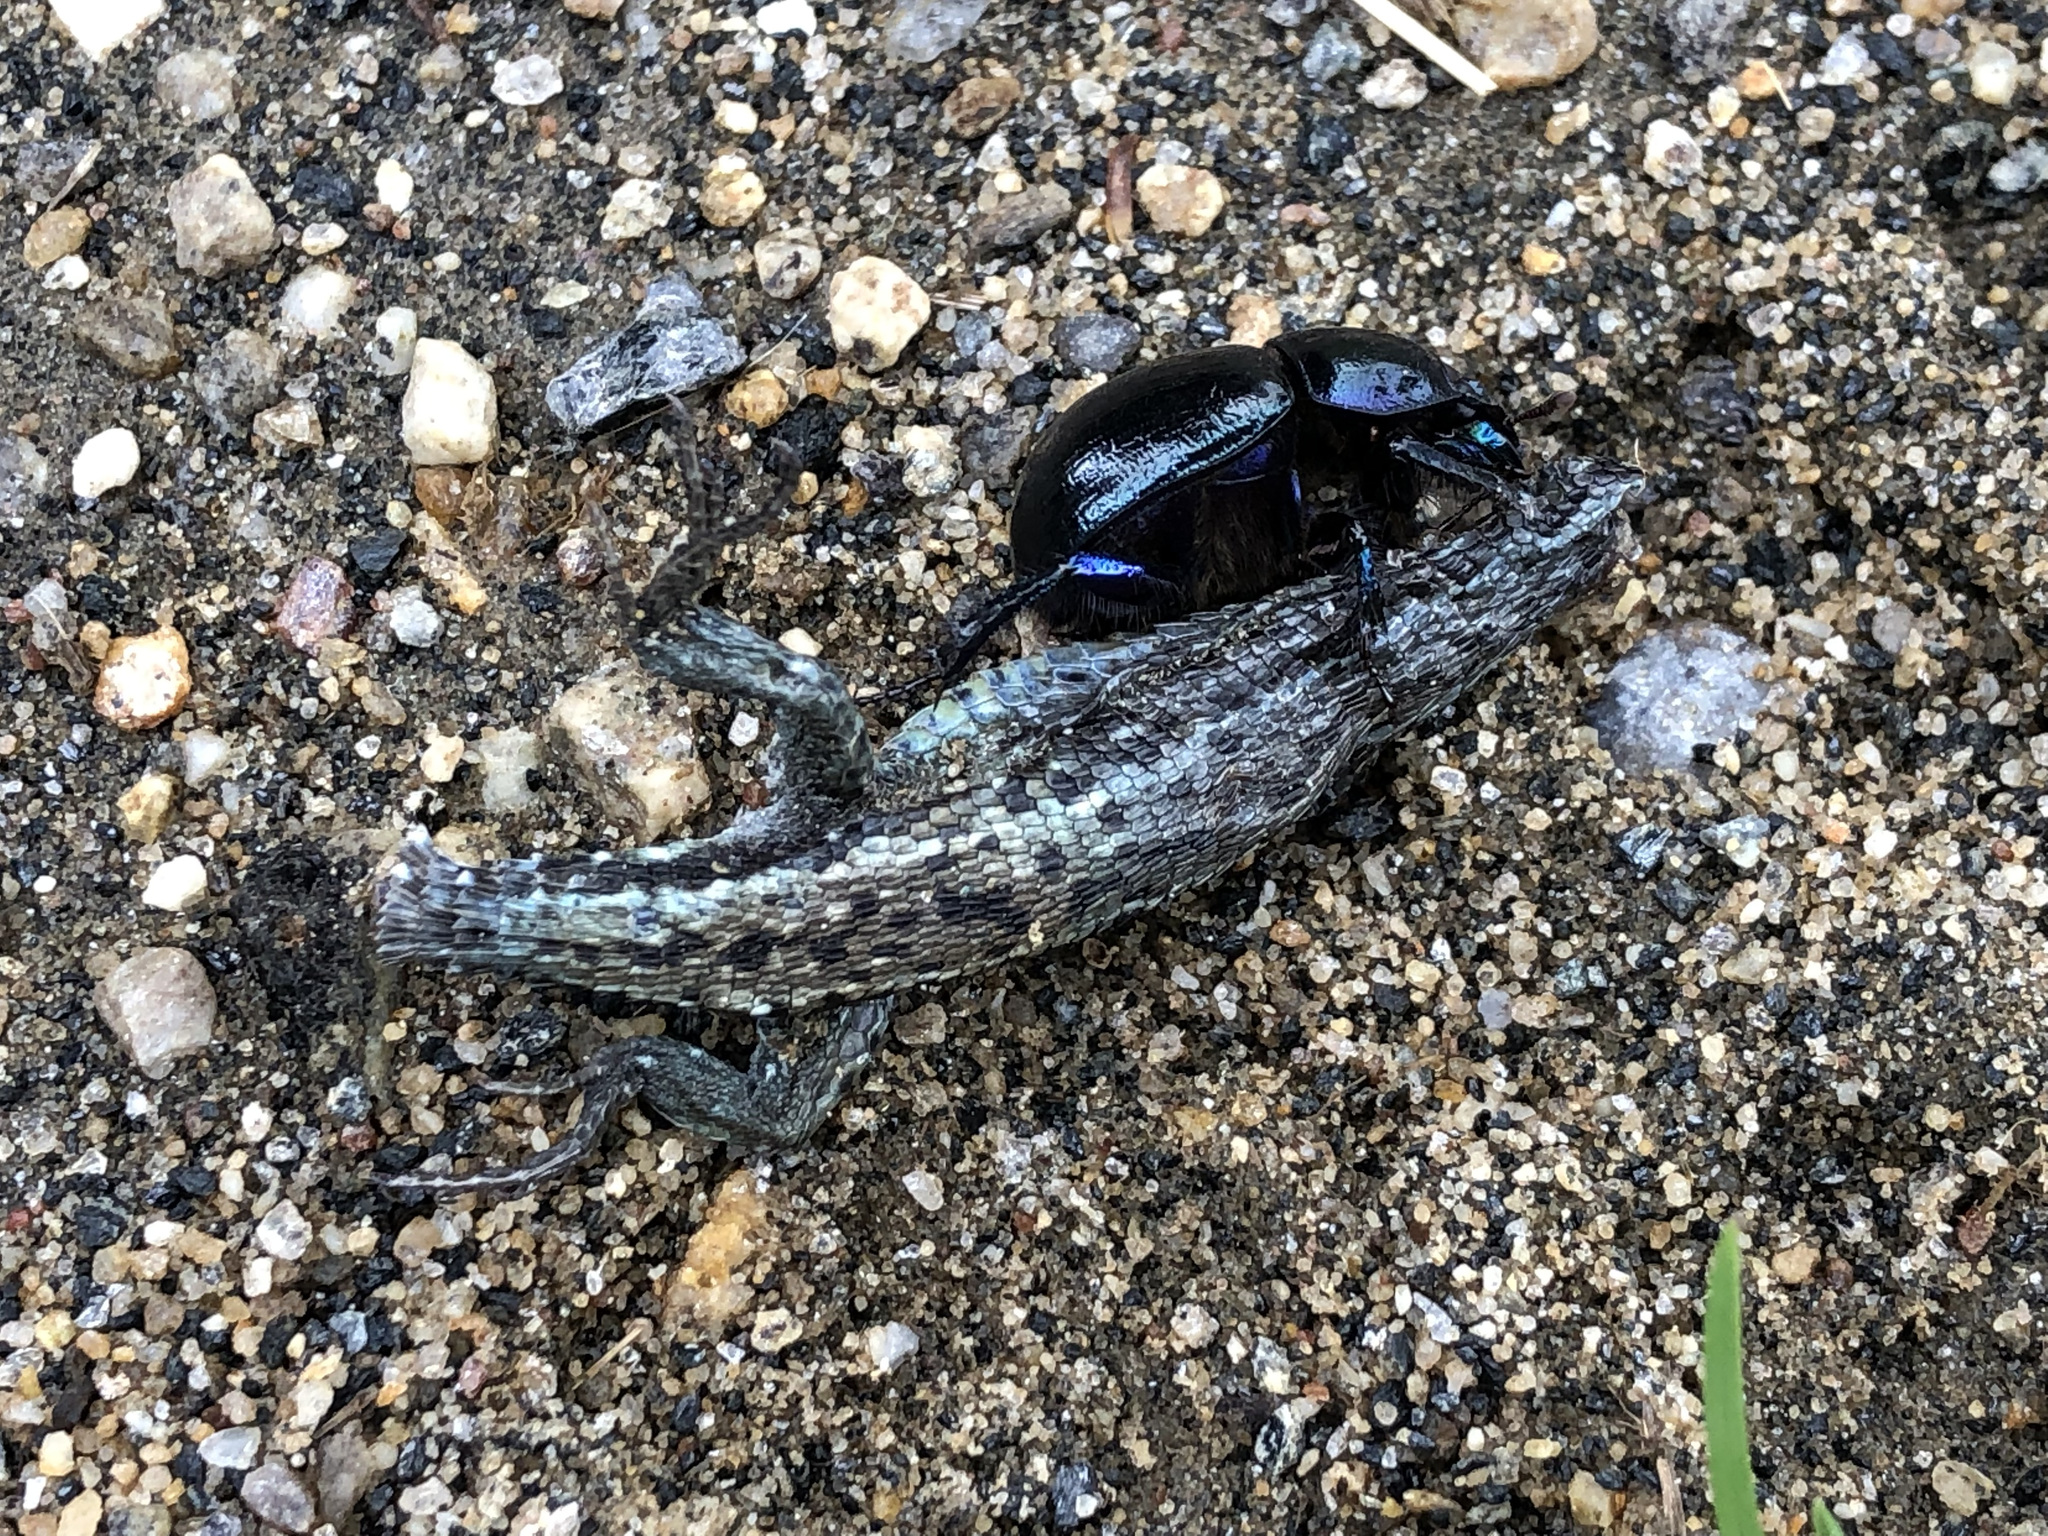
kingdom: Animalia
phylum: Chordata
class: Squamata
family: Lacertidae
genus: Zootoca
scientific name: Zootoca vivipara
